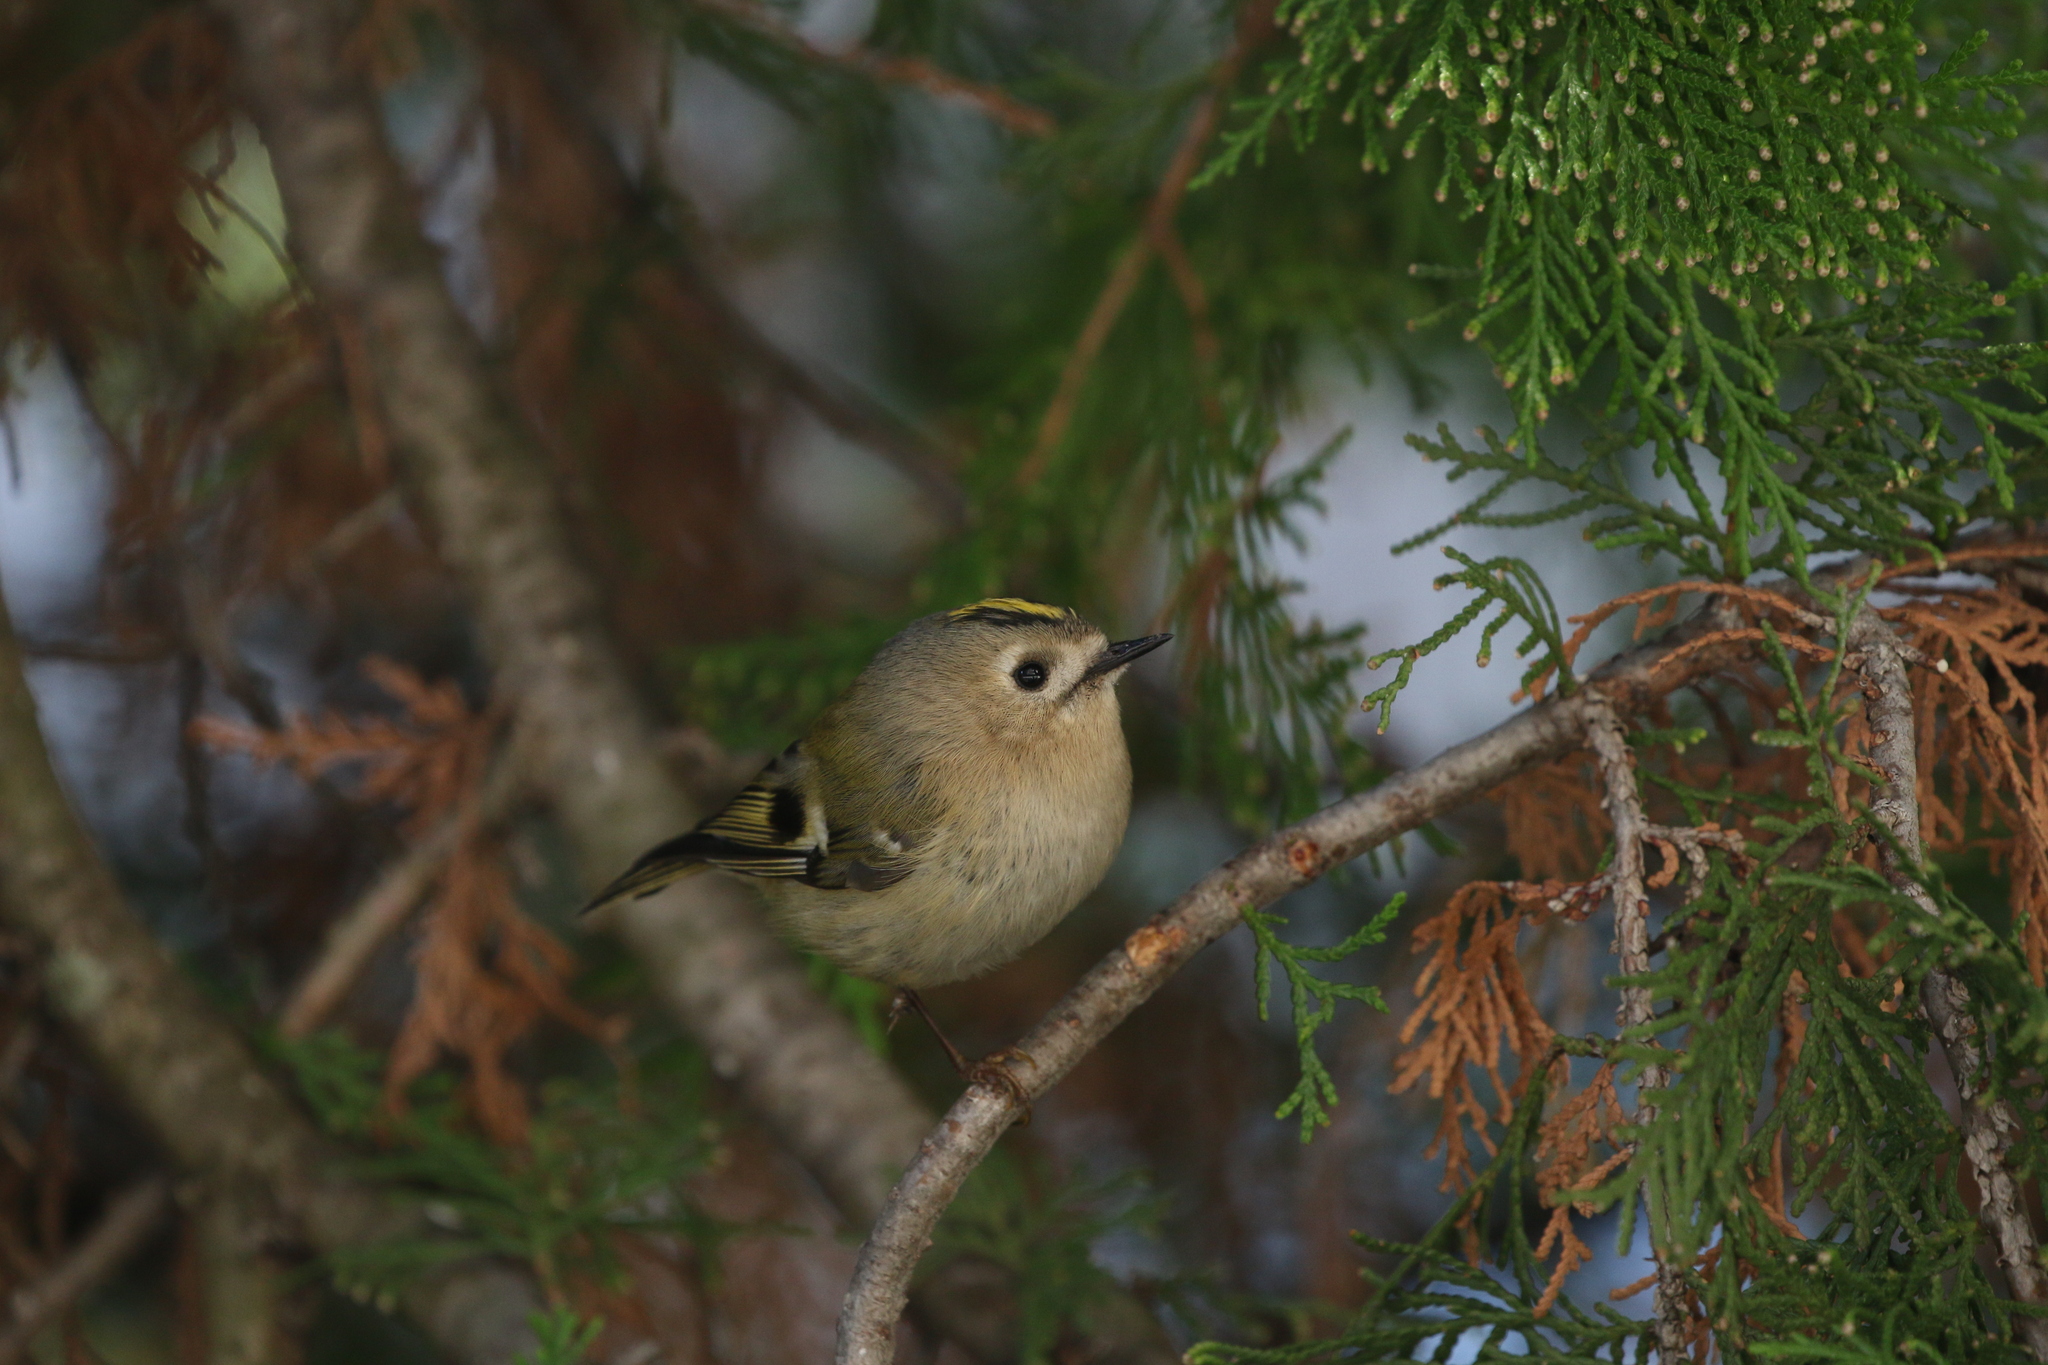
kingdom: Animalia
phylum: Chordata
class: Aves
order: Passeriformes
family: Regulidae
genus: Regulus
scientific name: Regulus regulus
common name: Goldcrest
